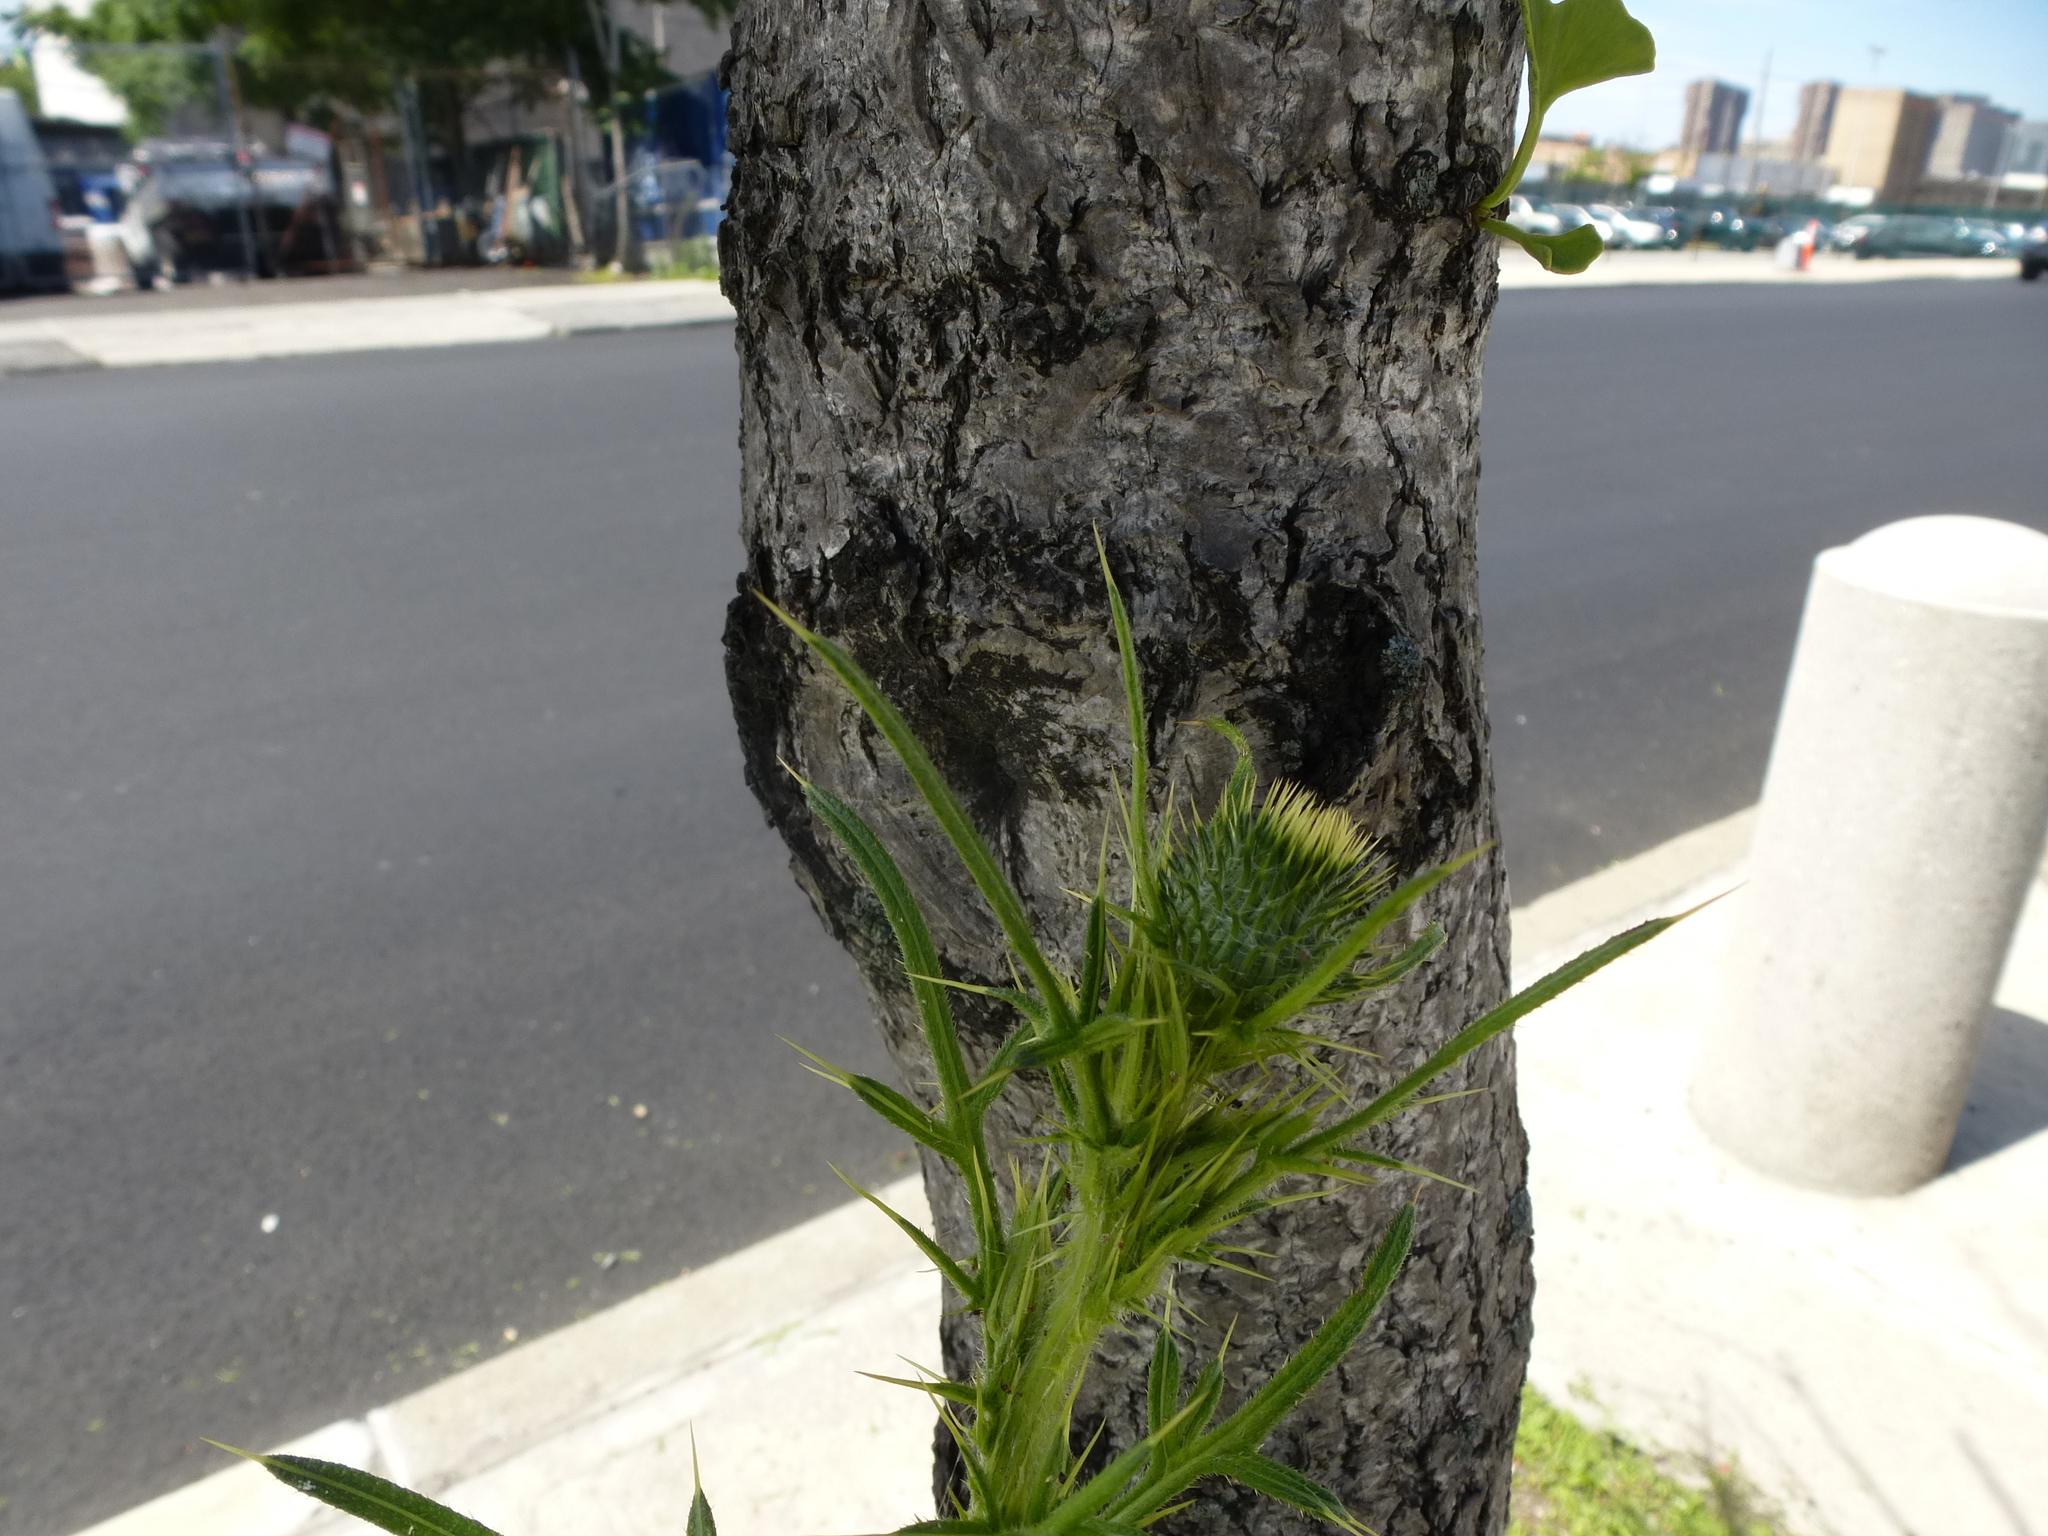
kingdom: Plantae
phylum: Tracheophyta
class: Magnoliopsida
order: Asterales
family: Asteraceae
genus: Cirsium
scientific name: Cirsium vulgare
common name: Bull thistle
